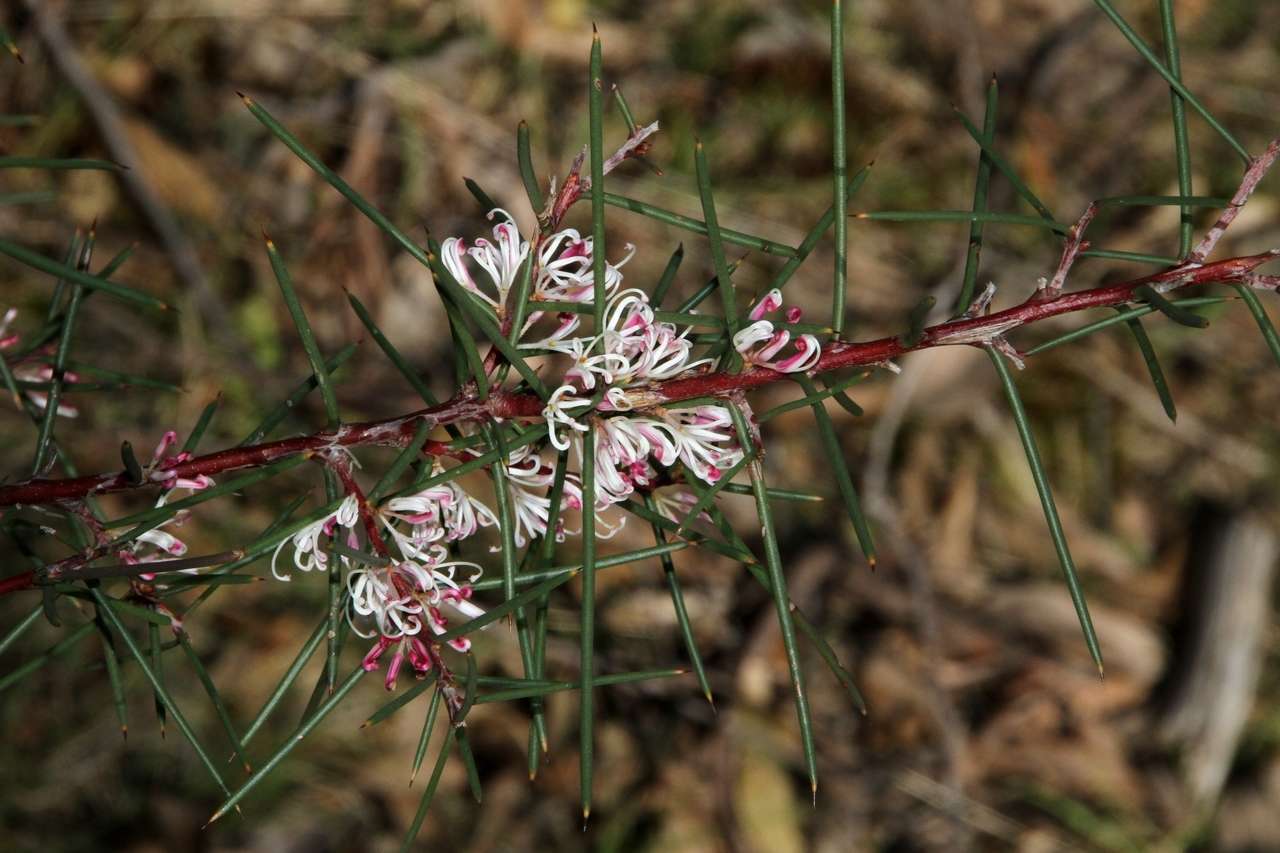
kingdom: Plantae
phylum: Tracheophyta
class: Magnoliopsida
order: Proteales
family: Proteaceae
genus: Hakea
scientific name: Hakea decurrens
